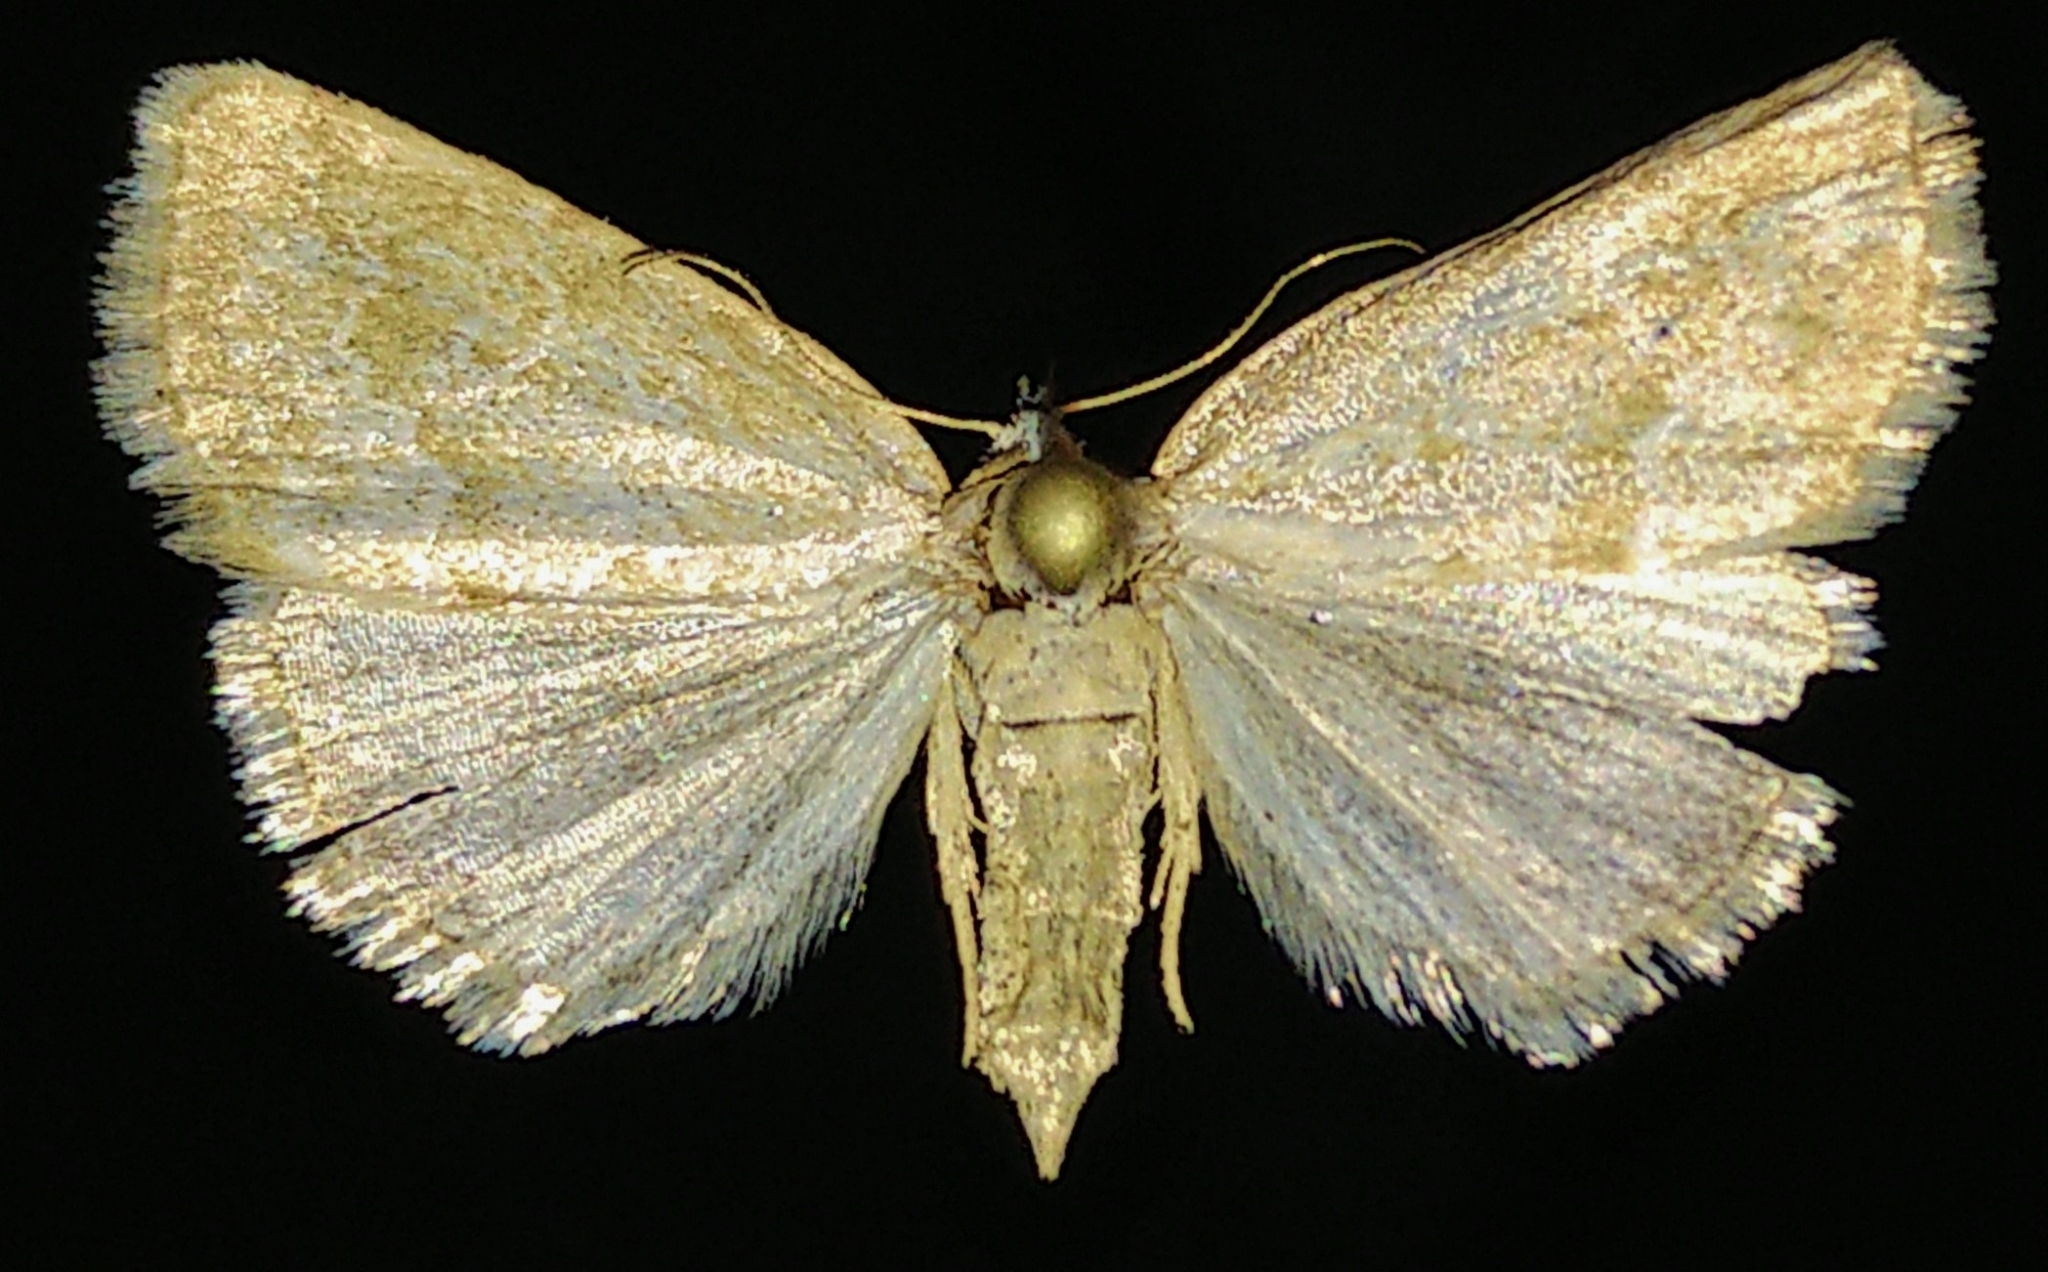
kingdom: Animalia
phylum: Arthropoda
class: Insecta
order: Lepidoptera
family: Noctuidae
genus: Protodeltote
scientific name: Protodeltote albidula
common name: Pale glyph
